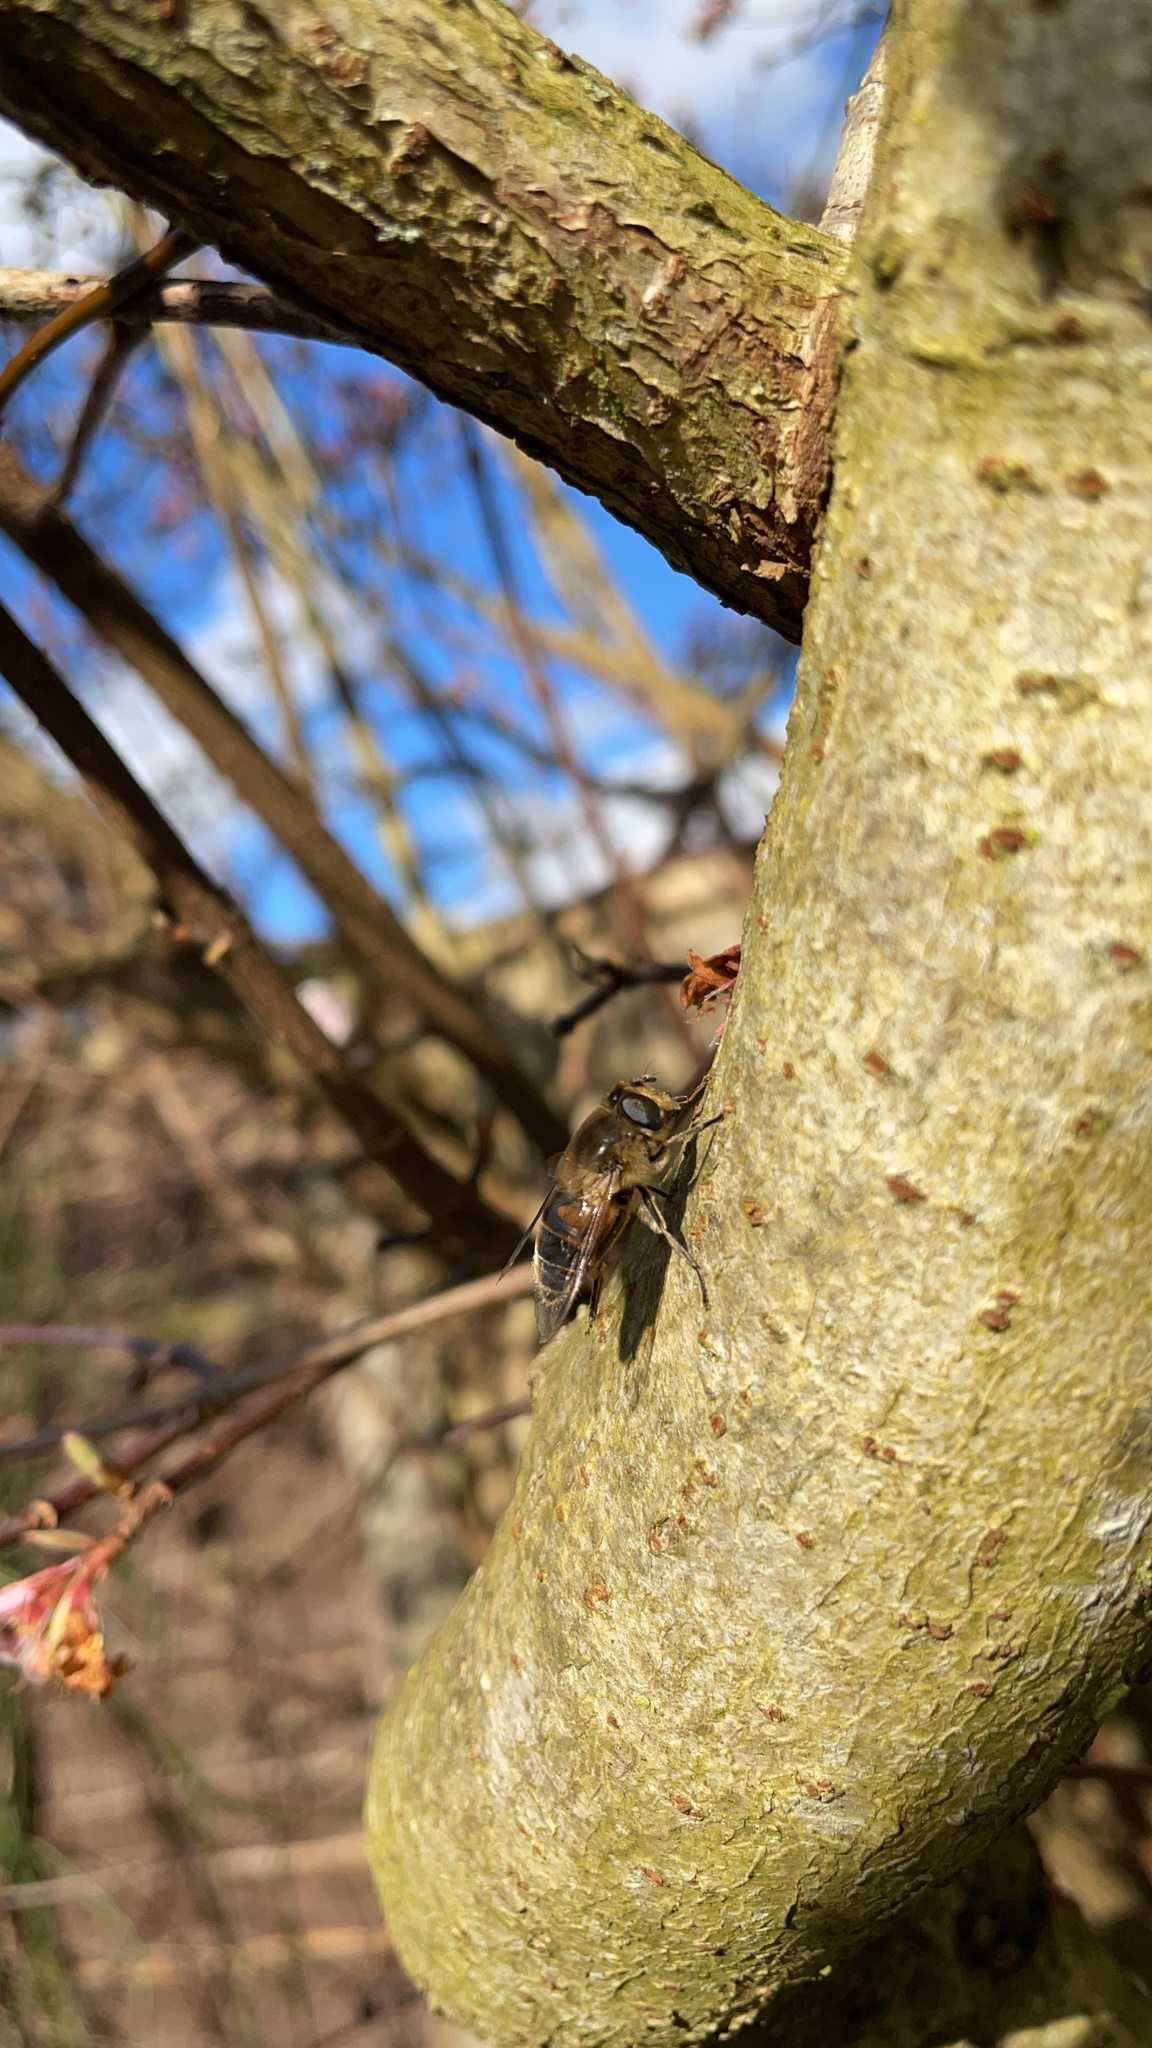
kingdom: Animalia
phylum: Arthropoda
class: Insecta
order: Diptera
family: Syrphidae
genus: Eristalis
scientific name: Eristalis tenax
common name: Drone fly
